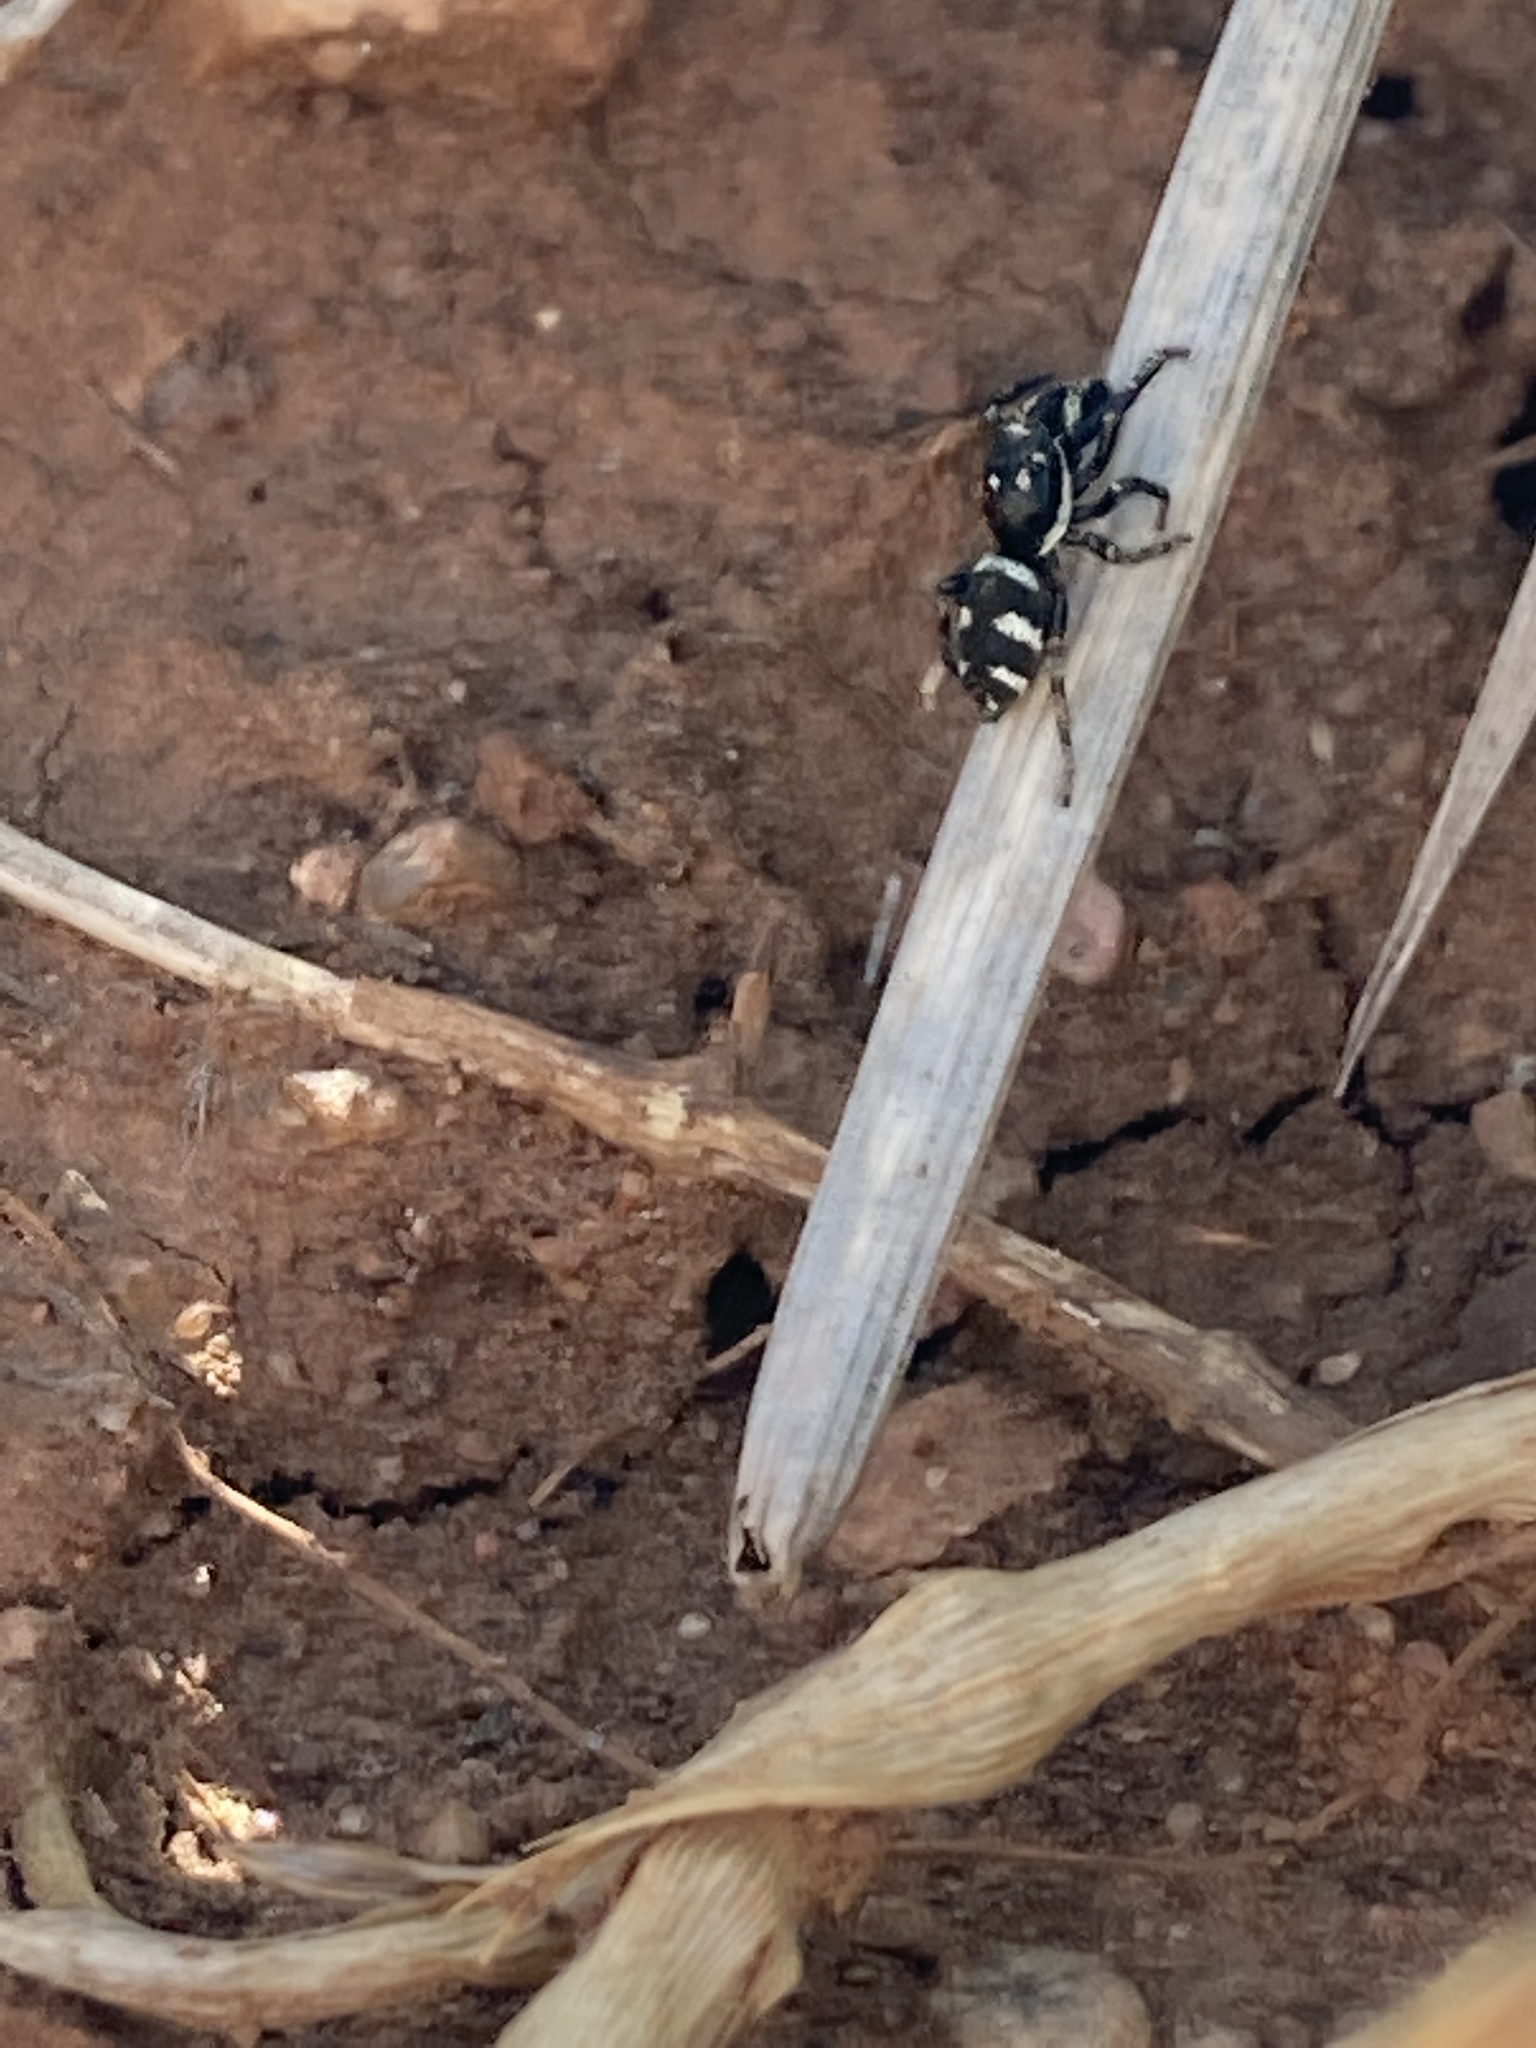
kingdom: Animalia
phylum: Arthropoda
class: Arachnida
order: Araneae
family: Salticidae
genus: Salticus
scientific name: Salticus scenicus
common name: Zebra jumper
